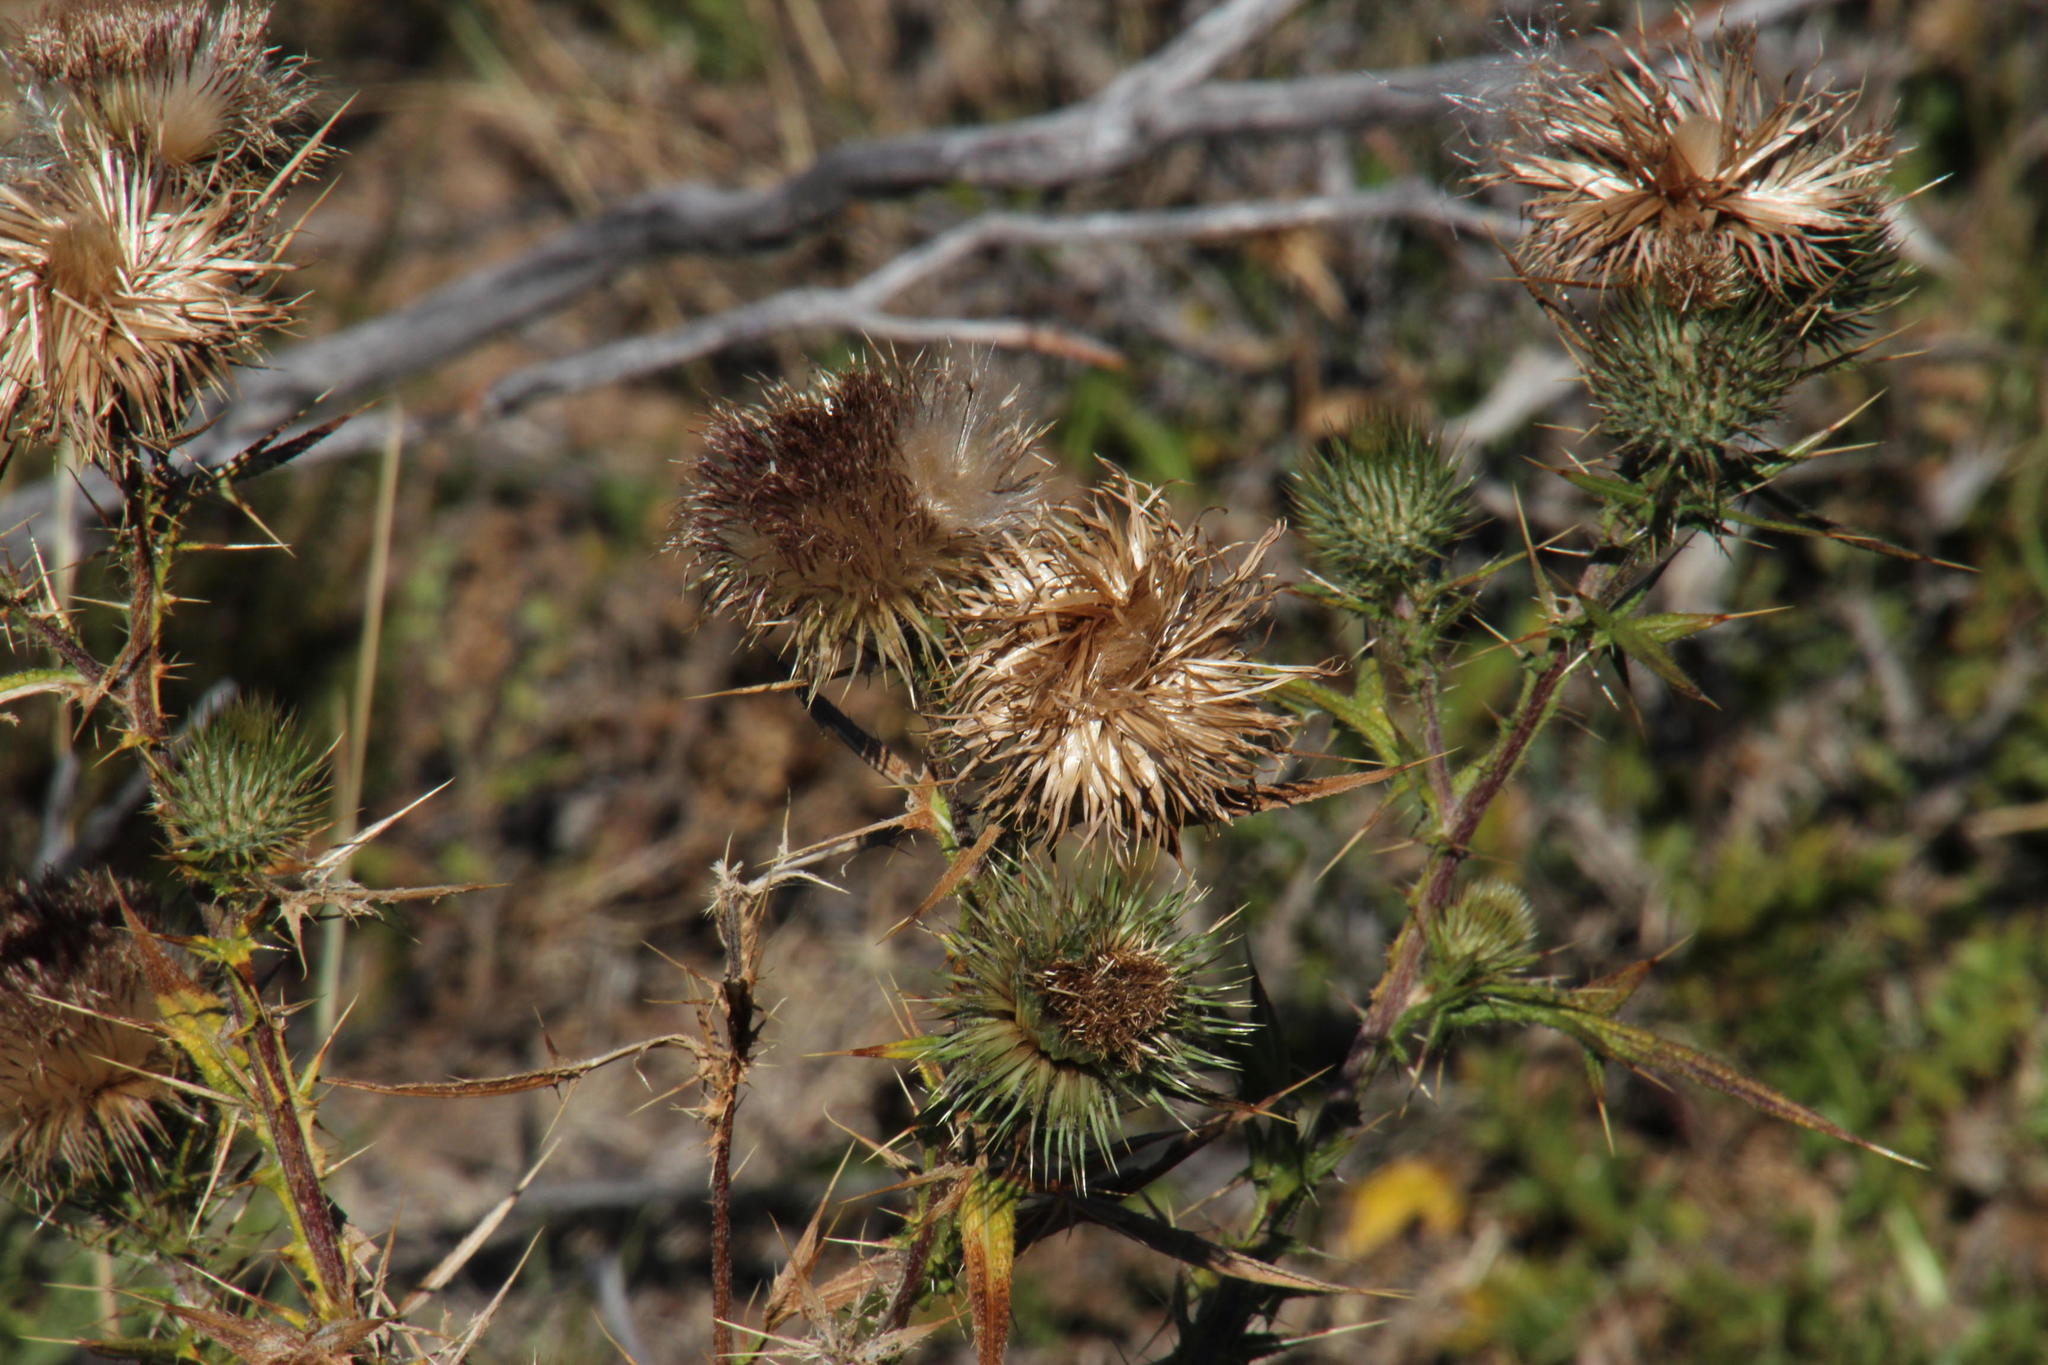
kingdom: Plantae
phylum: Tracheophyta
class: Magnoliopsida
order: Asterales
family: Asteraceae
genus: Cirsium
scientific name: Cirsium vulgare
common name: Bull thistle
